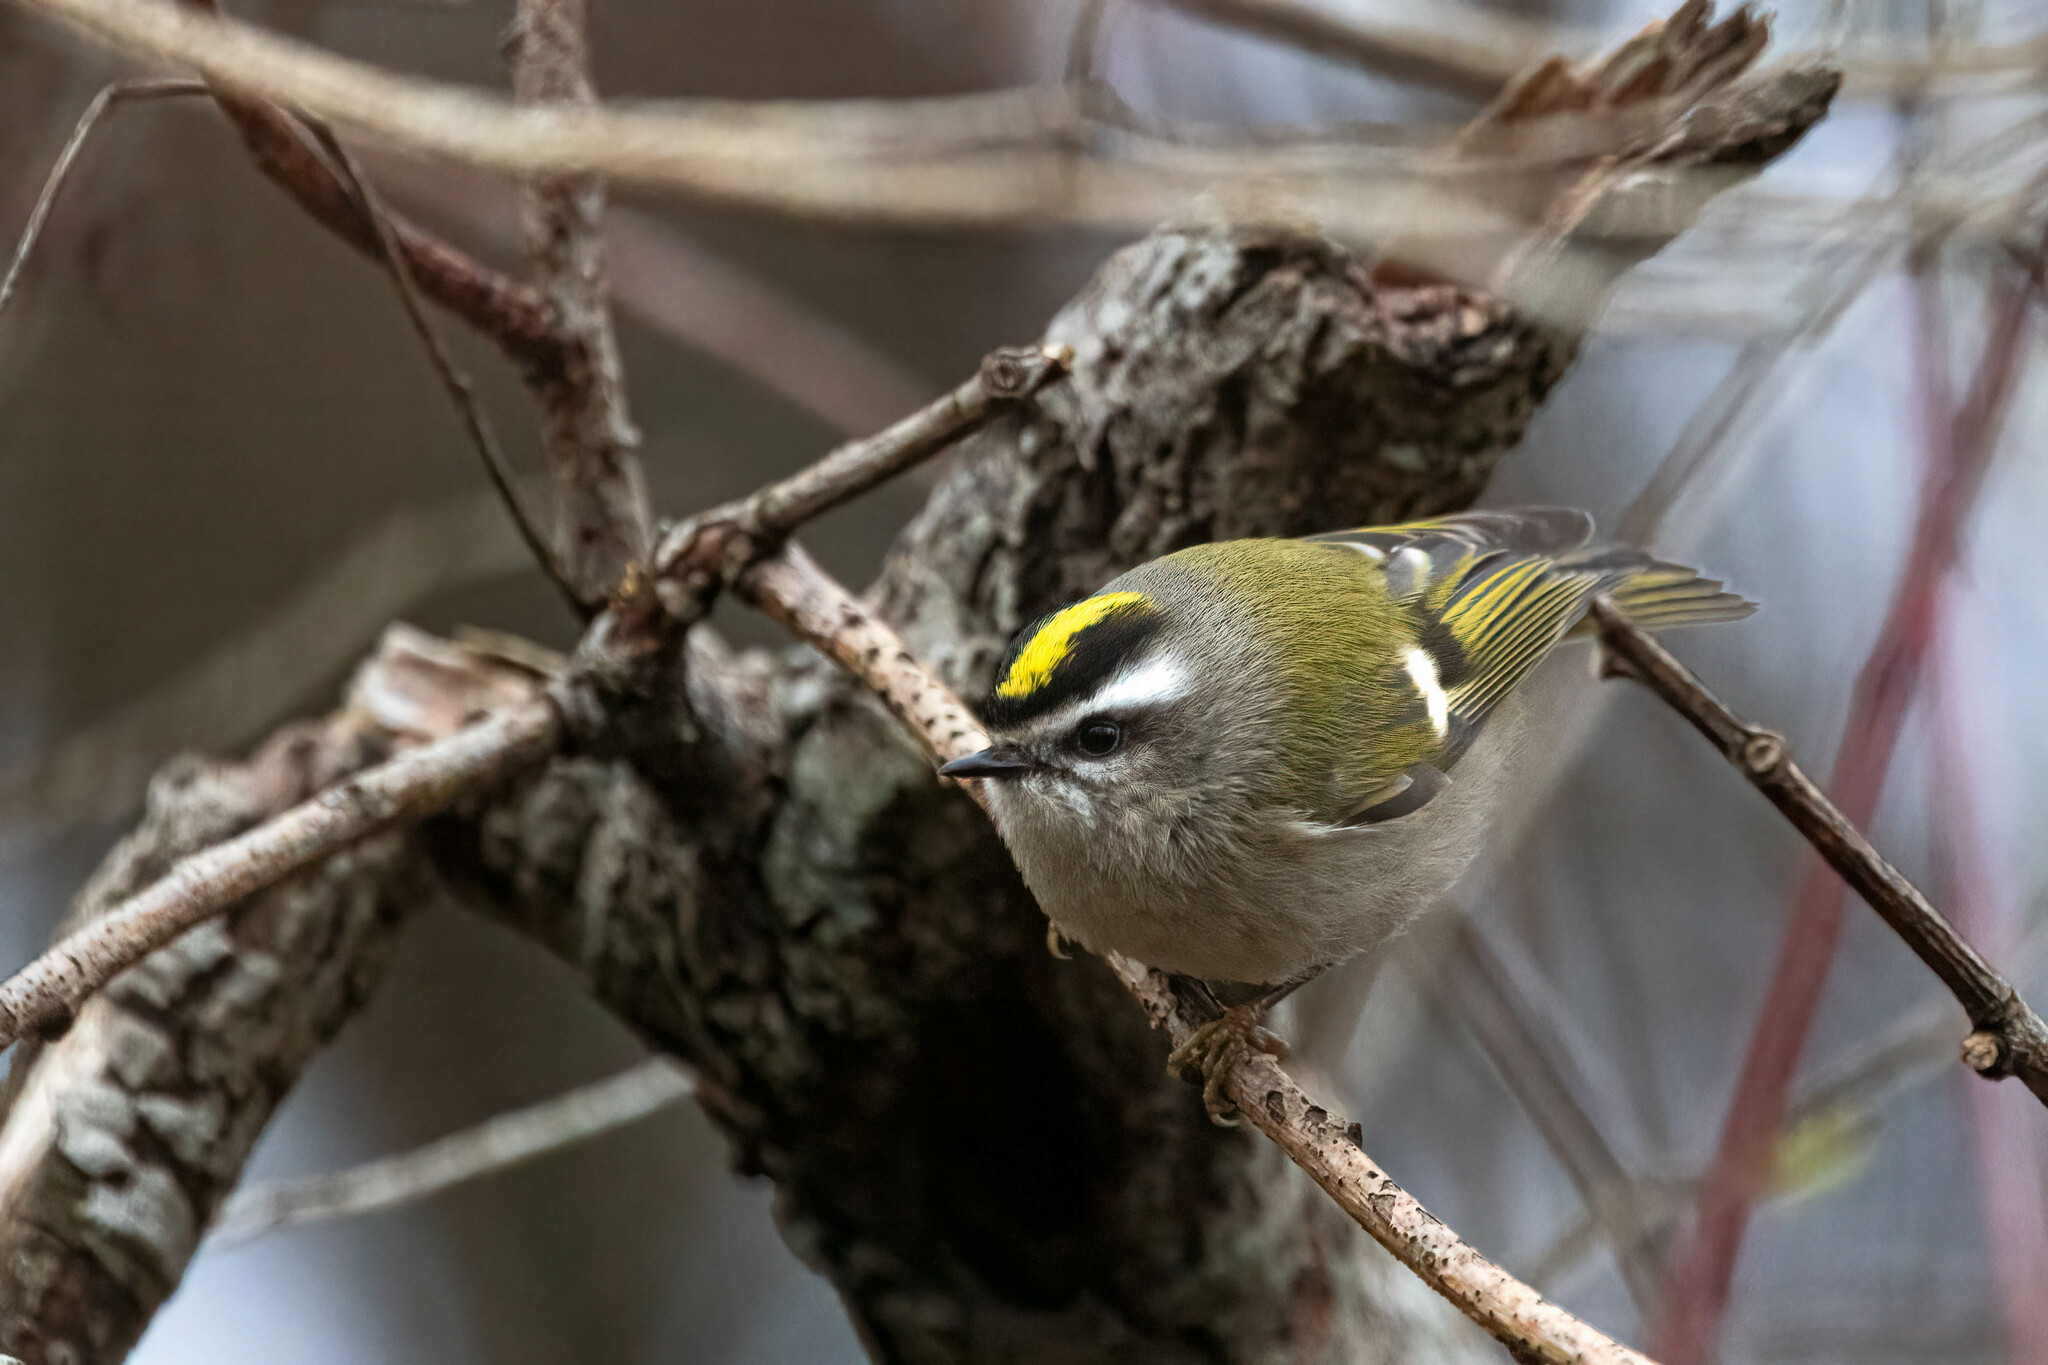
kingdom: Animalia
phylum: Chordata
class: Aves
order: Passeriformes
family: Regulidae
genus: Regulus
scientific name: Regulus satrapa
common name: Golden-crowned kinglet
